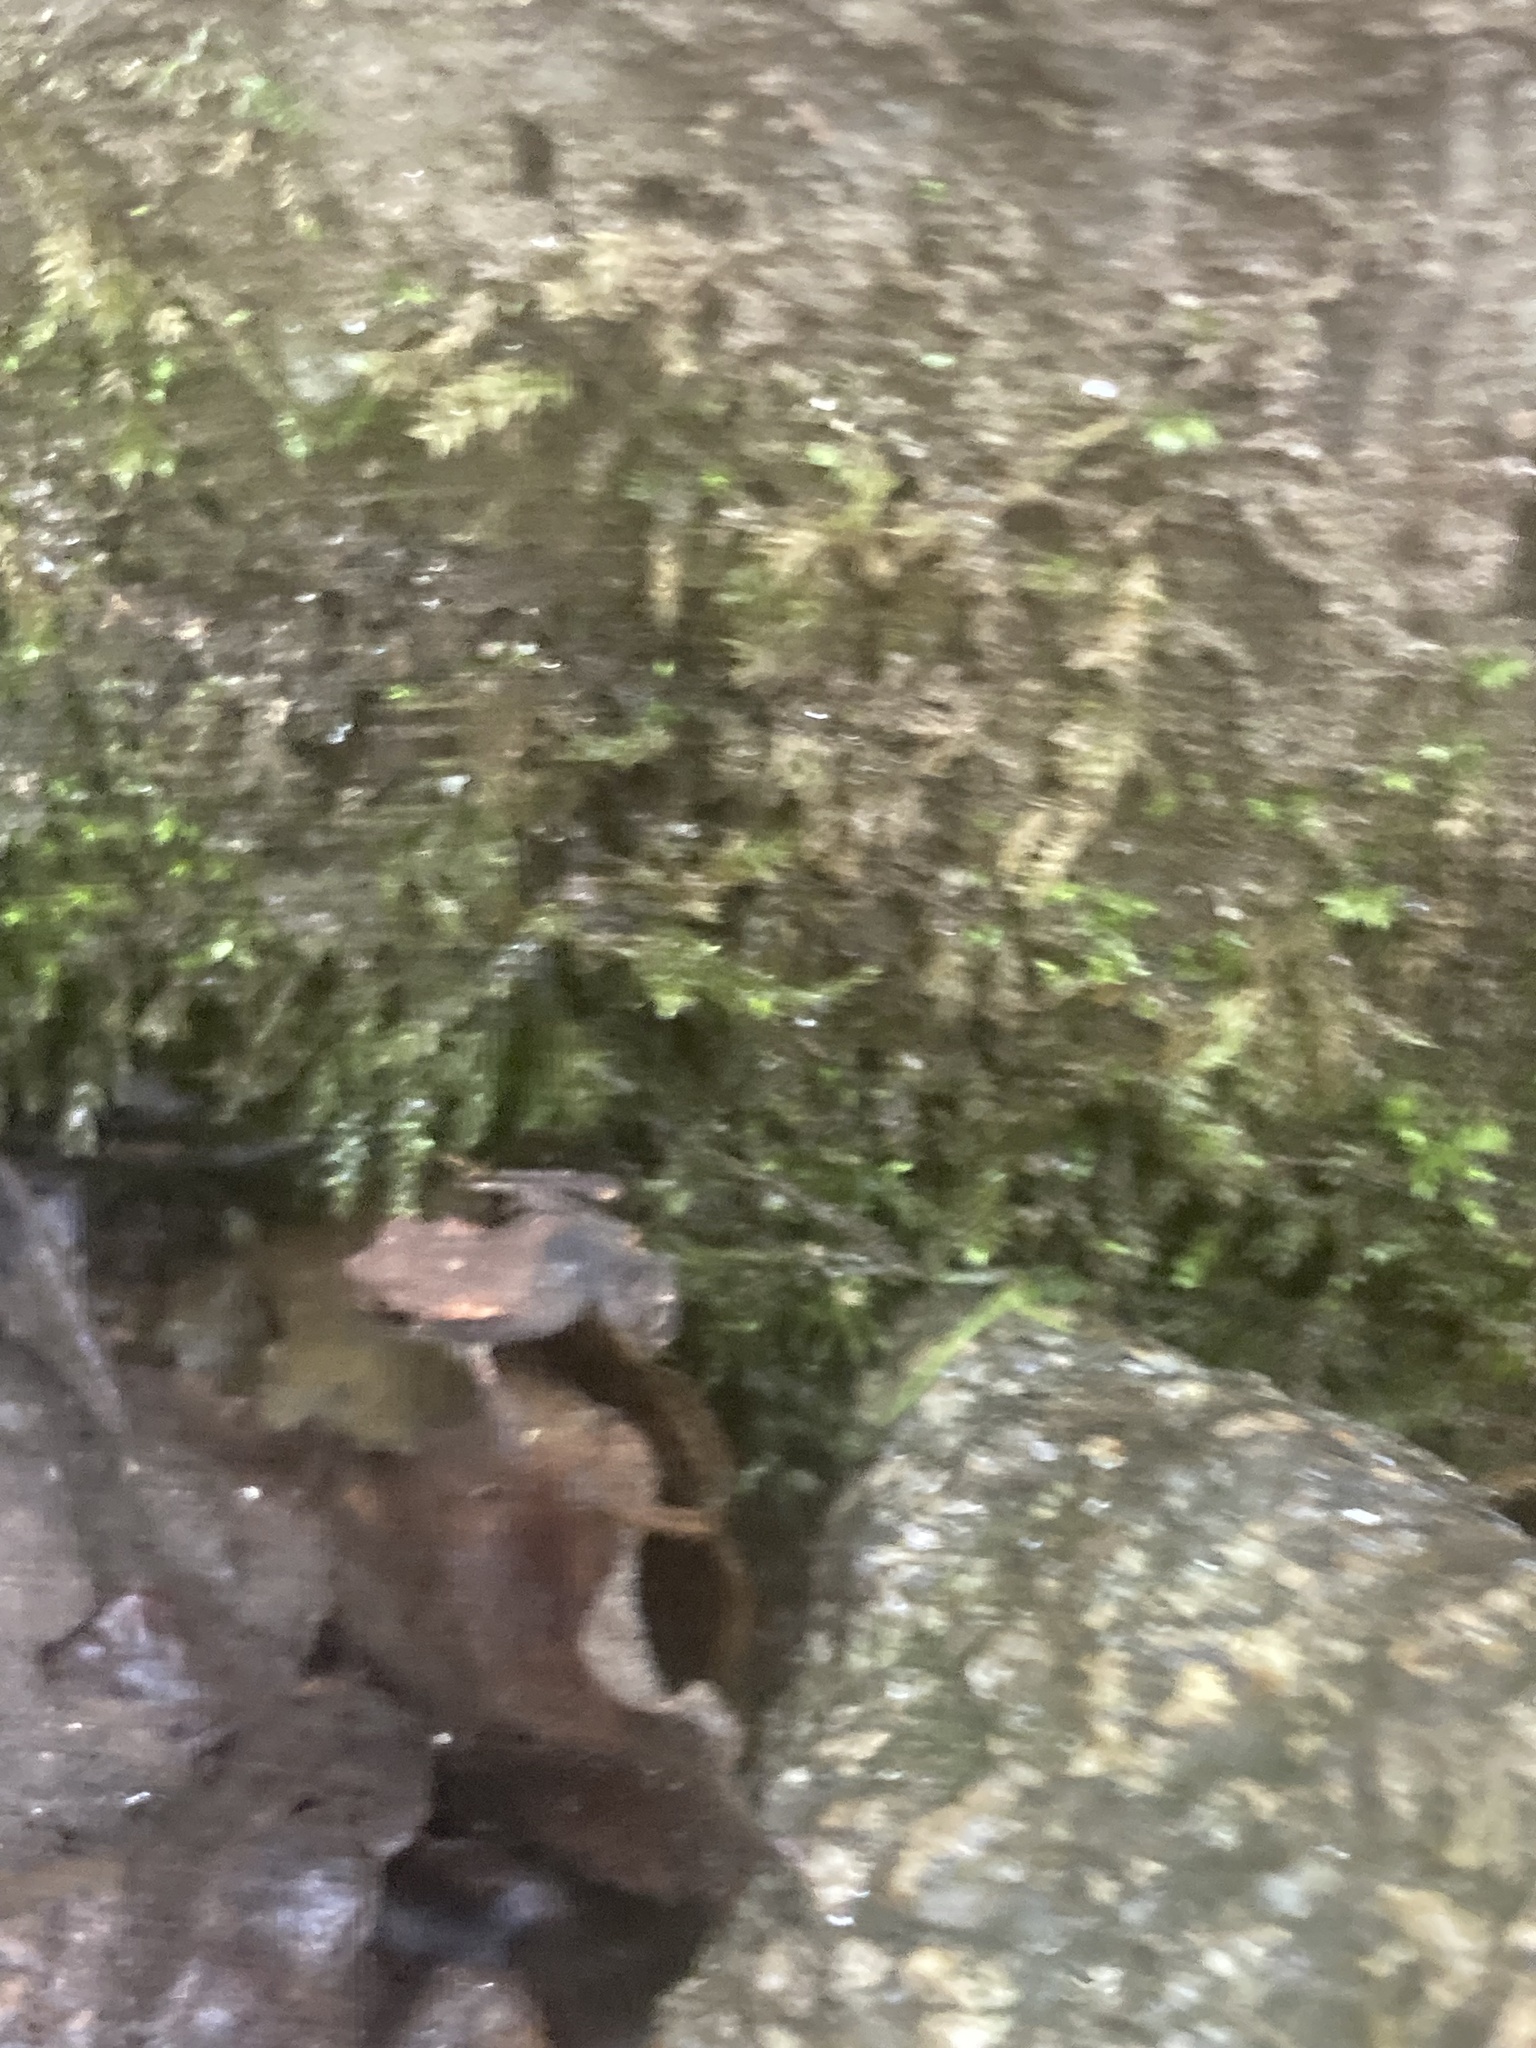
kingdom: Animalia
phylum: Chordata
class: Amphibia
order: Anura
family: Bufonidae
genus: Bufo
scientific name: Bufo spinosus
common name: Western common toad
